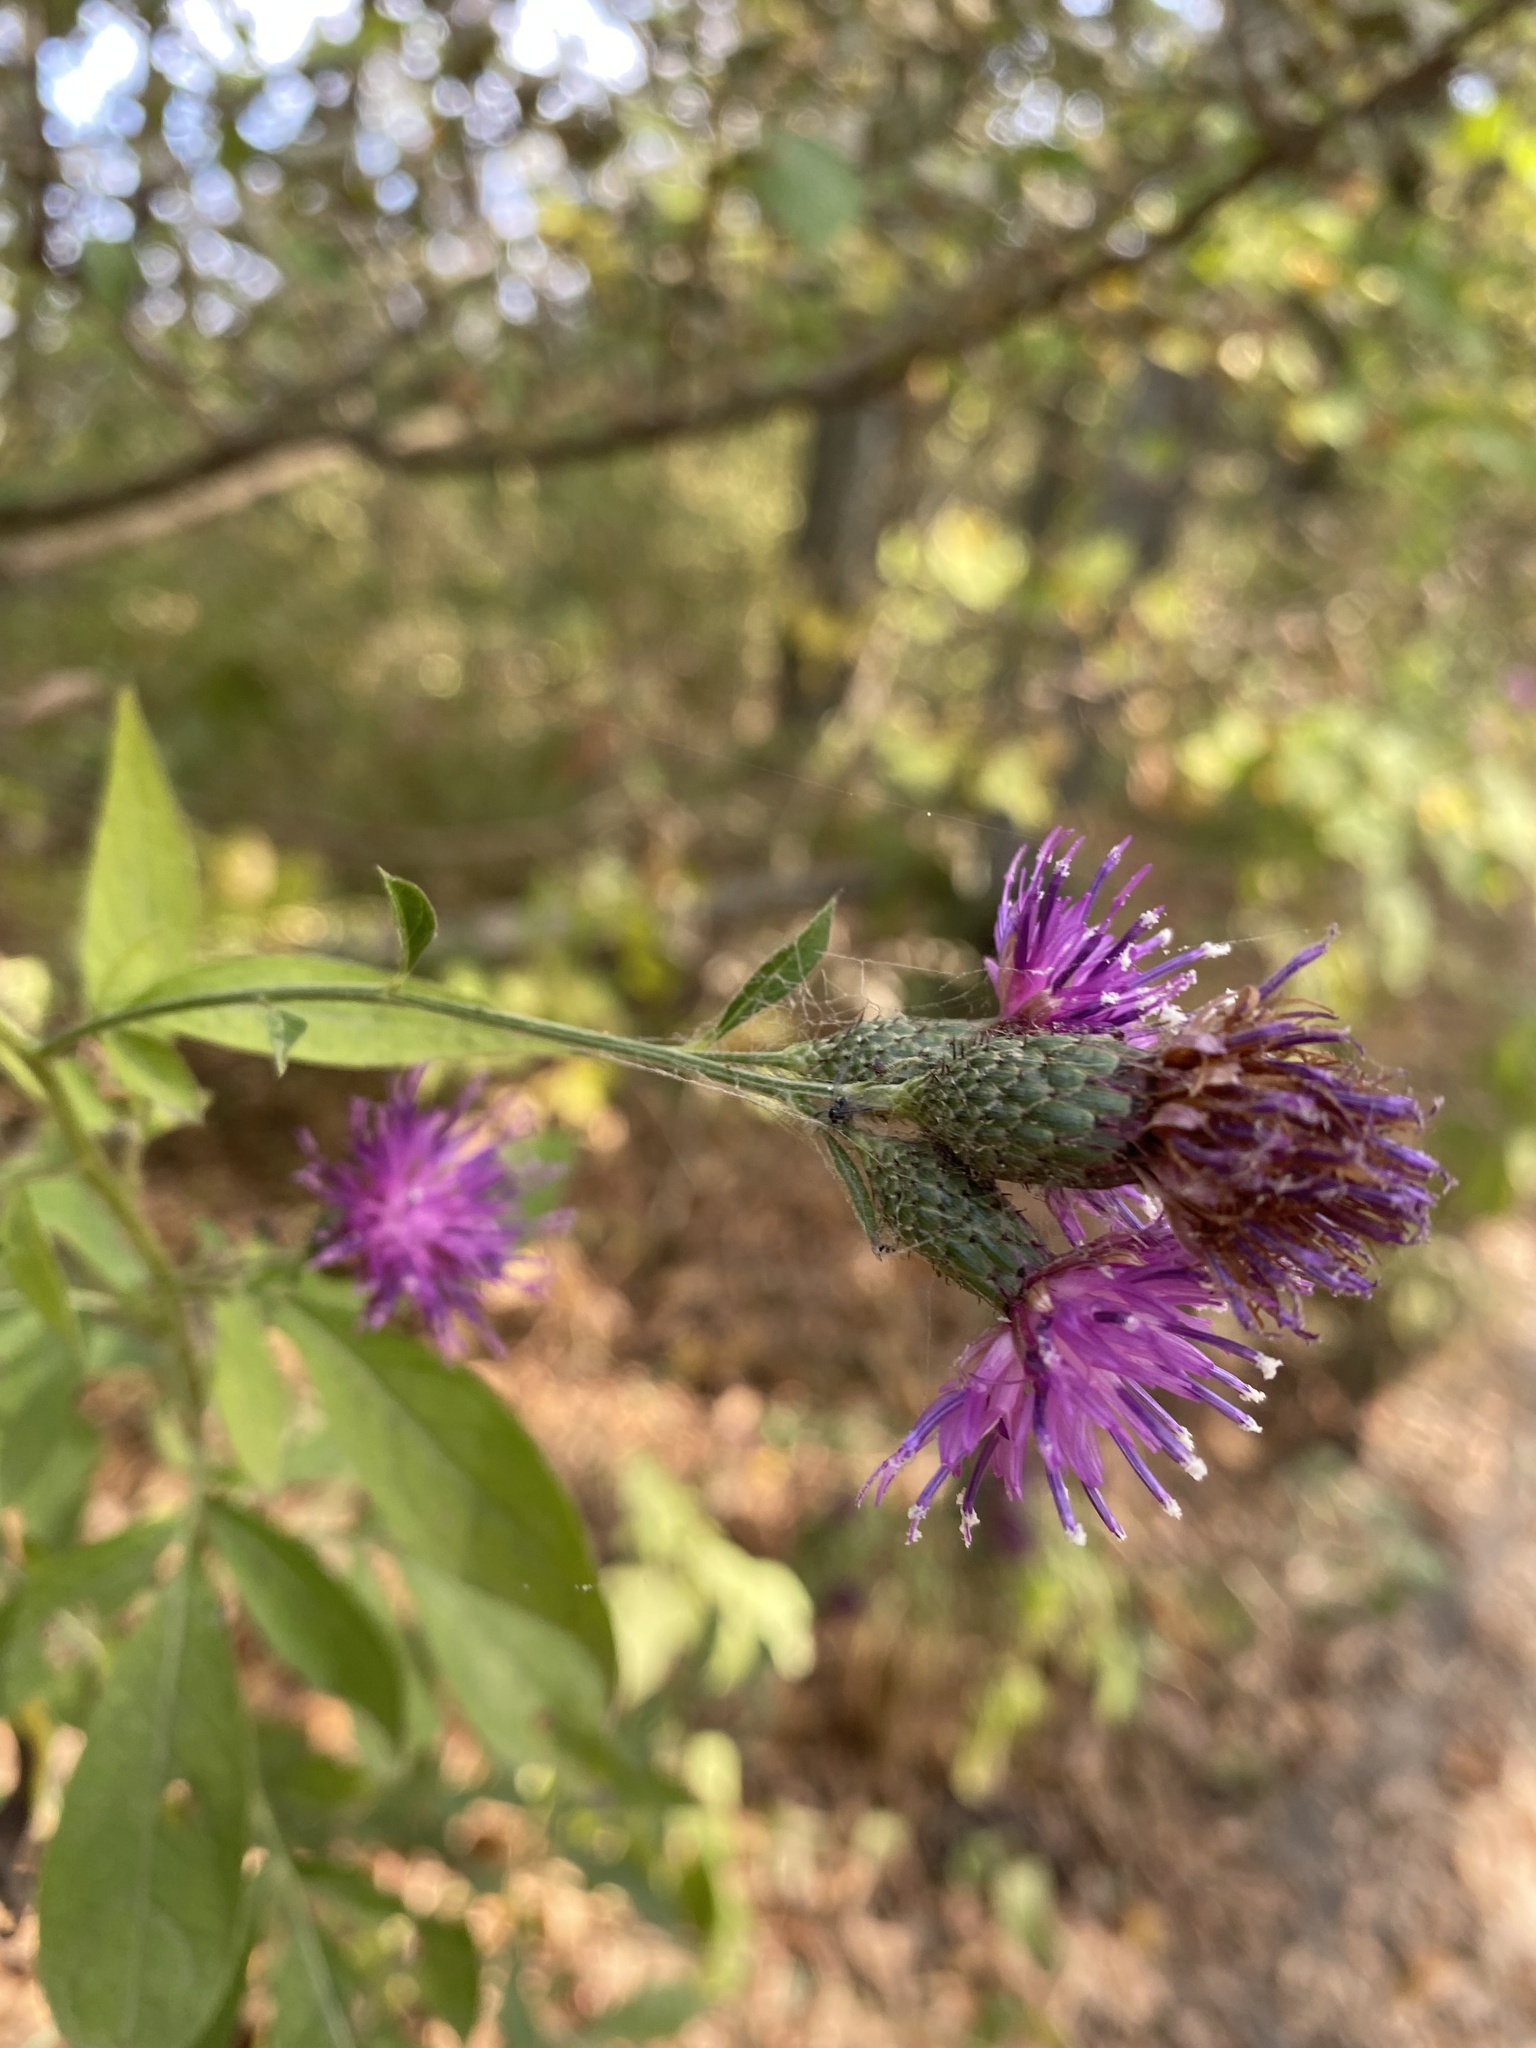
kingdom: Plantae
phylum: Tracheophyta
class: Magnoliopsida
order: Asterales
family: Asteraceae
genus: Klasea
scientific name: Klasea quinquefolia
